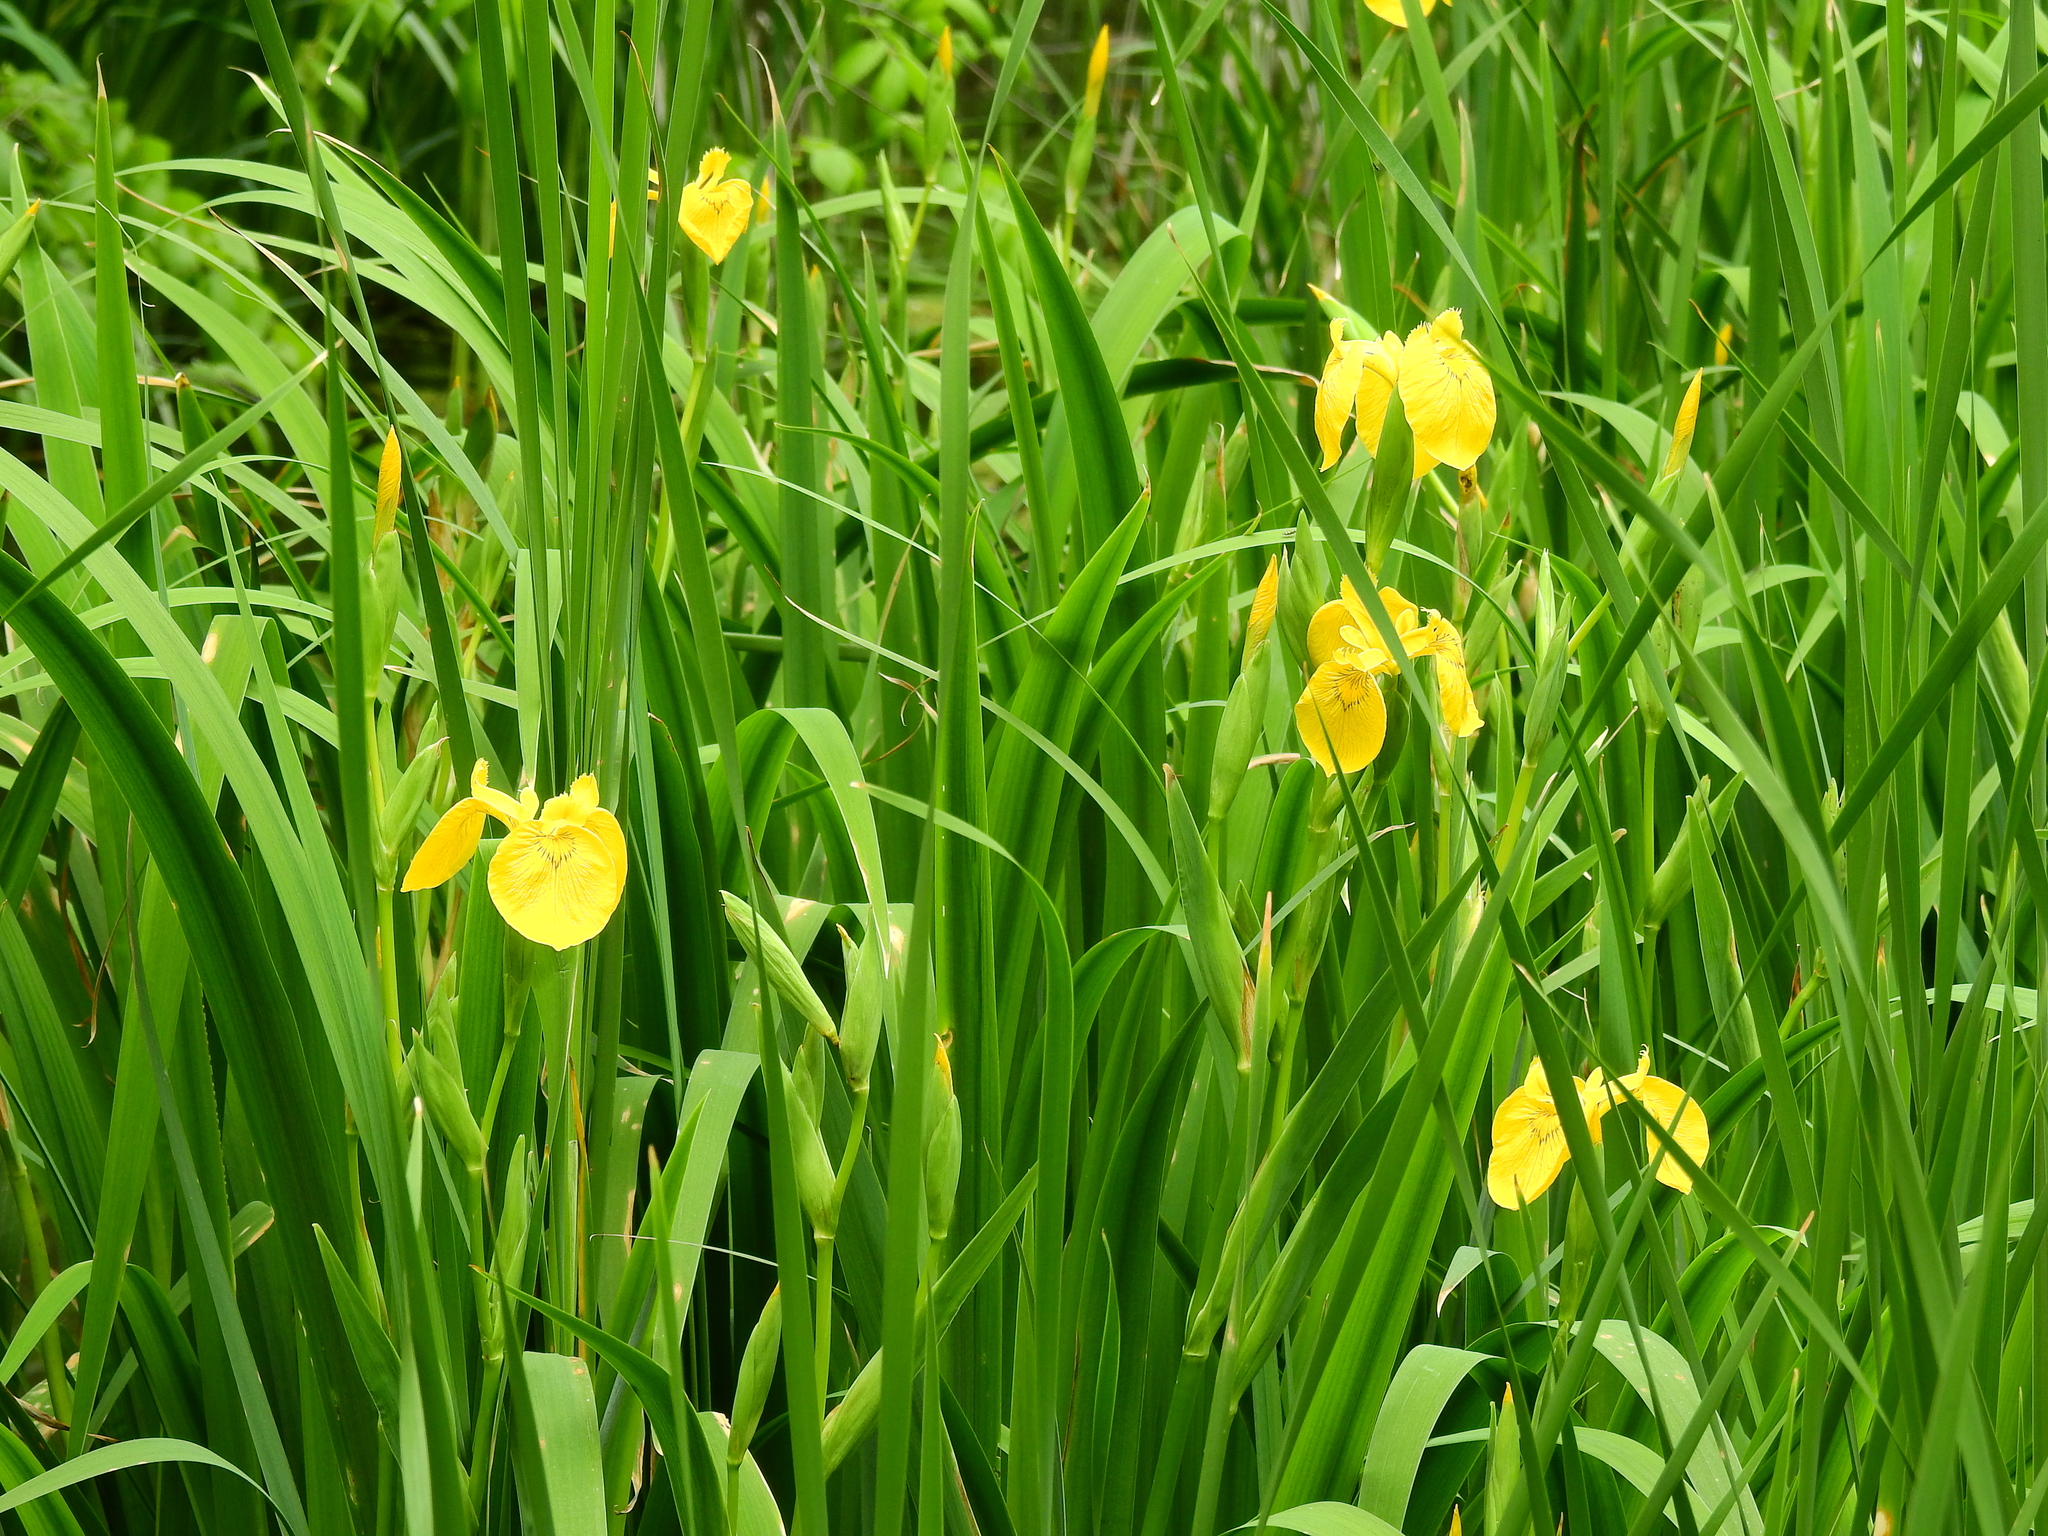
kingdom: Plantae
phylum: Tracheophyta
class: Liliopsida
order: Asparagales
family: Iridaceae
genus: Iris
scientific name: Iris pseudacorus
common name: Yellow flag
